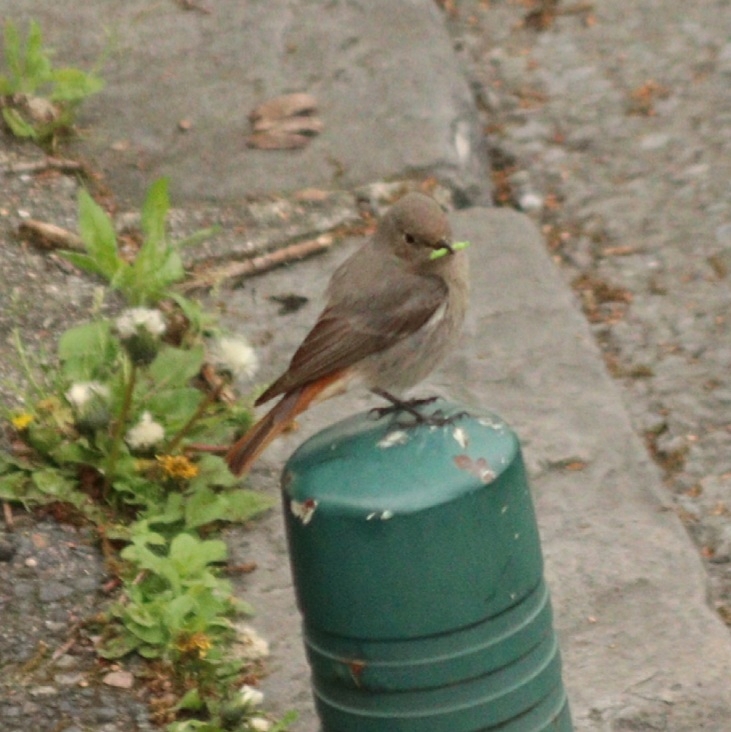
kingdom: Animalia
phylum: Chordata
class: Aves
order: Passeriformes
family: Muscicapidae
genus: Phoenicurus
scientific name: Phoenicurus ochruros
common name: Black redstart
